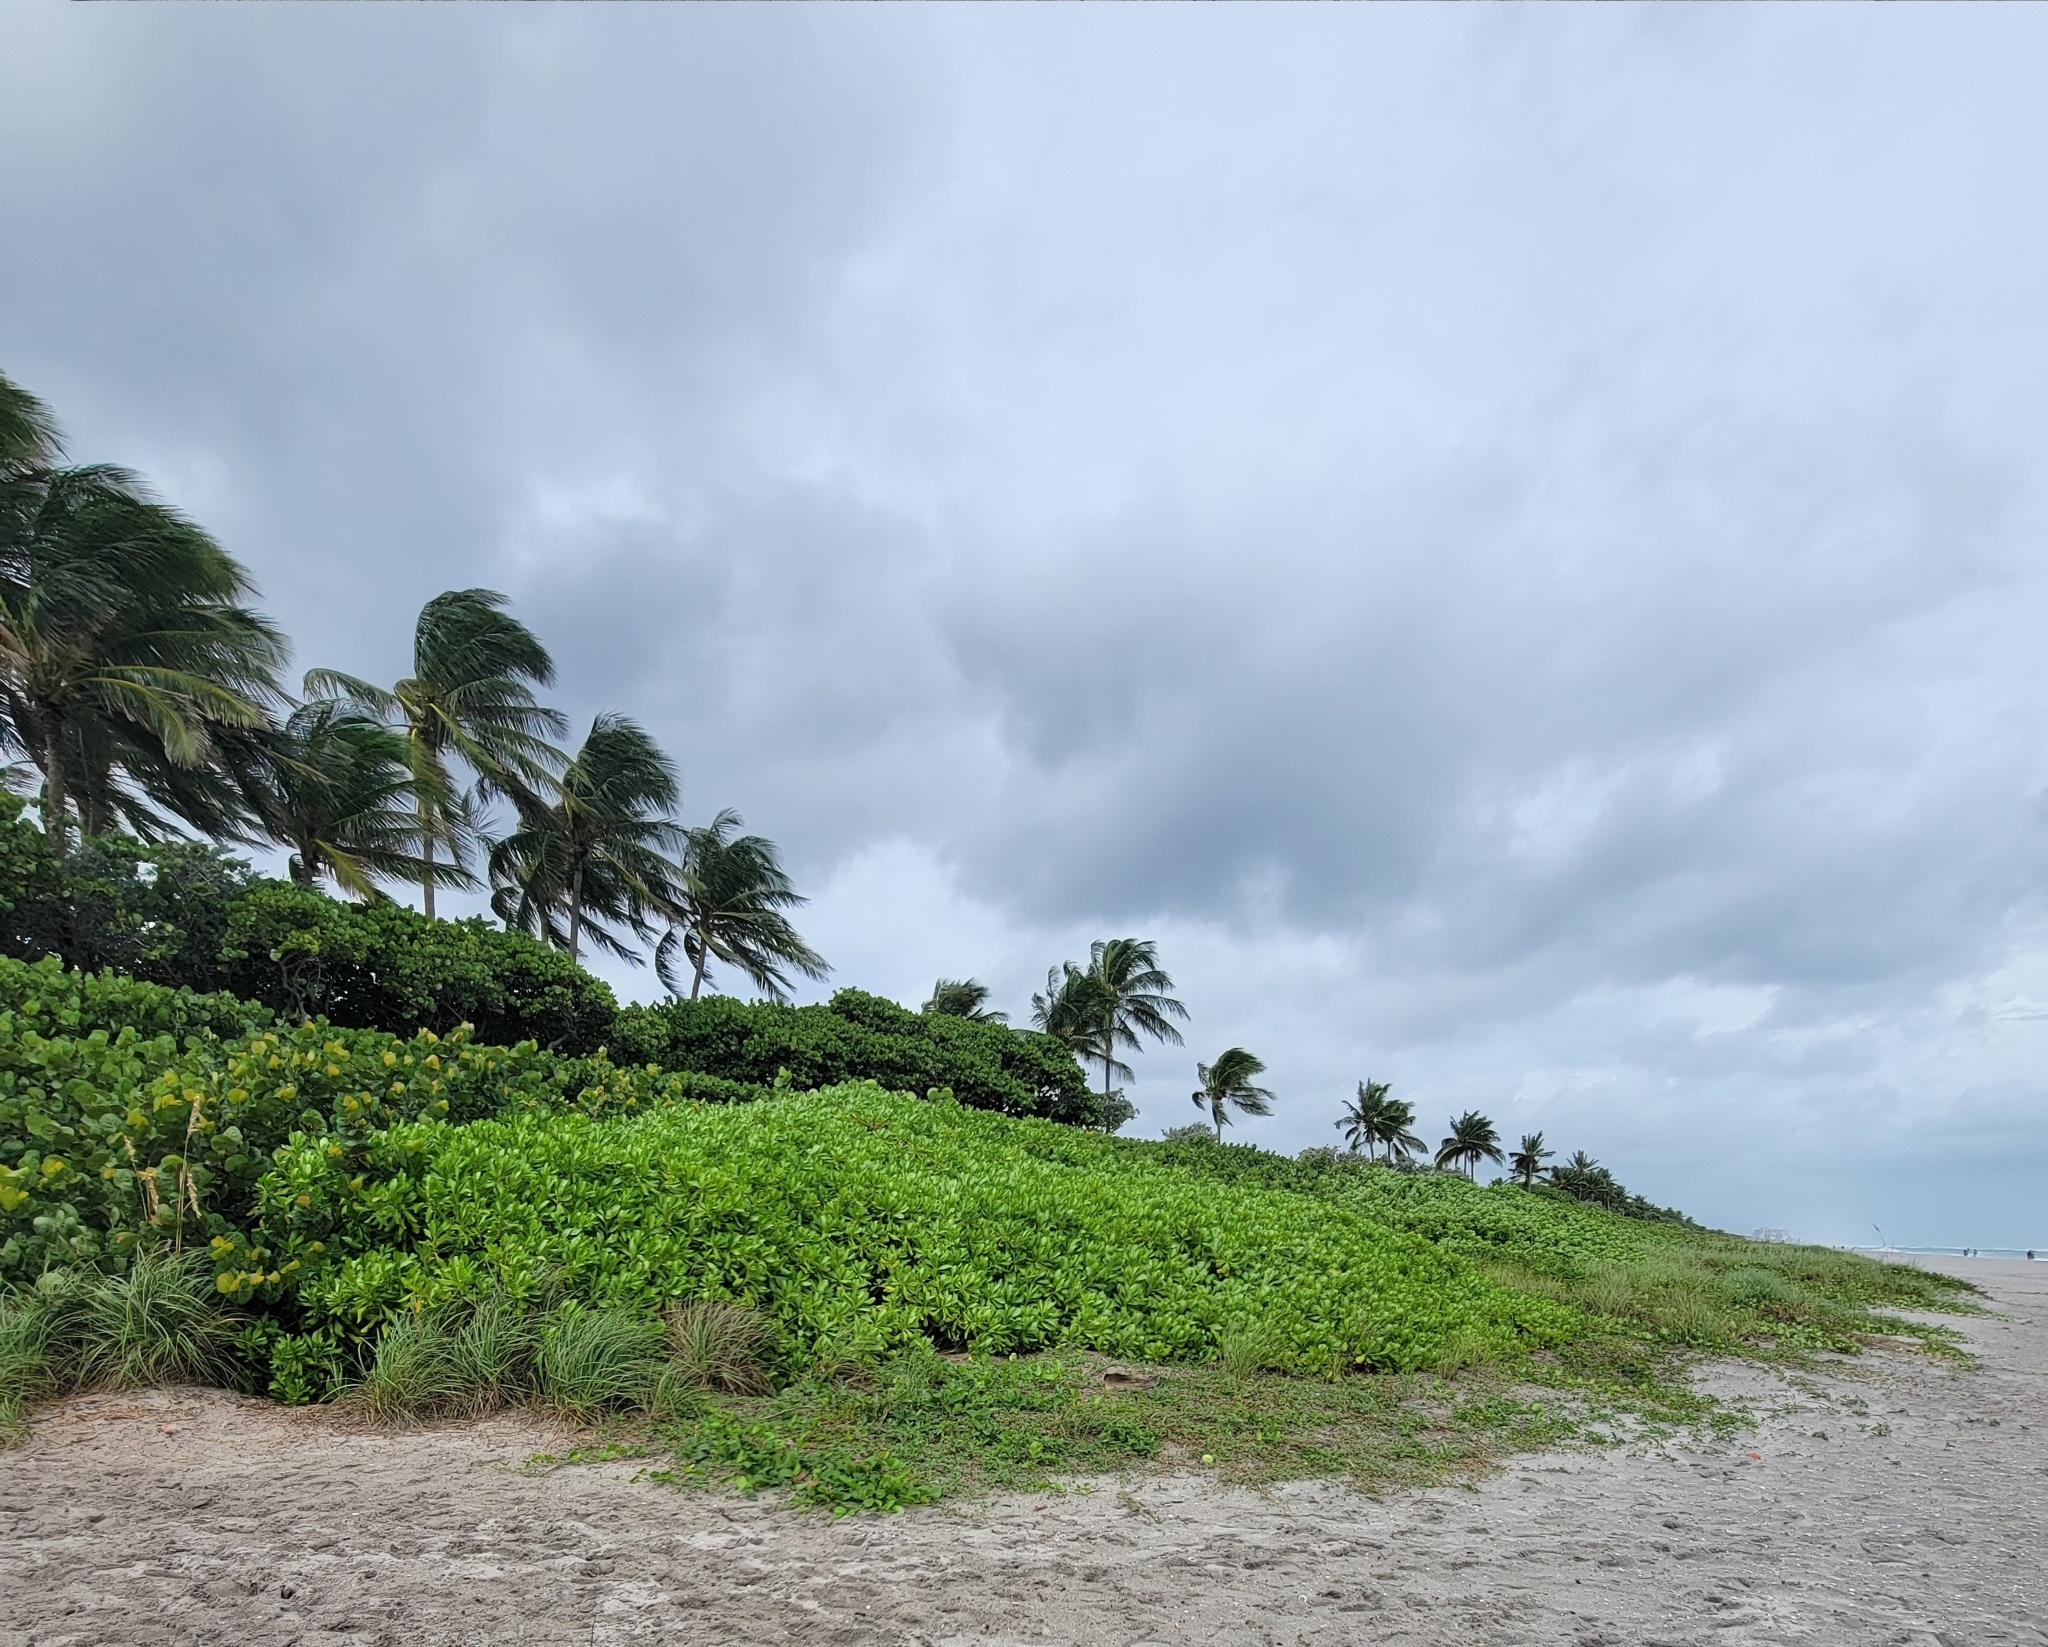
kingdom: Plantae
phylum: Tracheophyta
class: Magnoliopsida
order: Asterales
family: Goodeniaceae
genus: Scaevola
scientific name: Scaevola taccada
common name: Sea lettucetree
